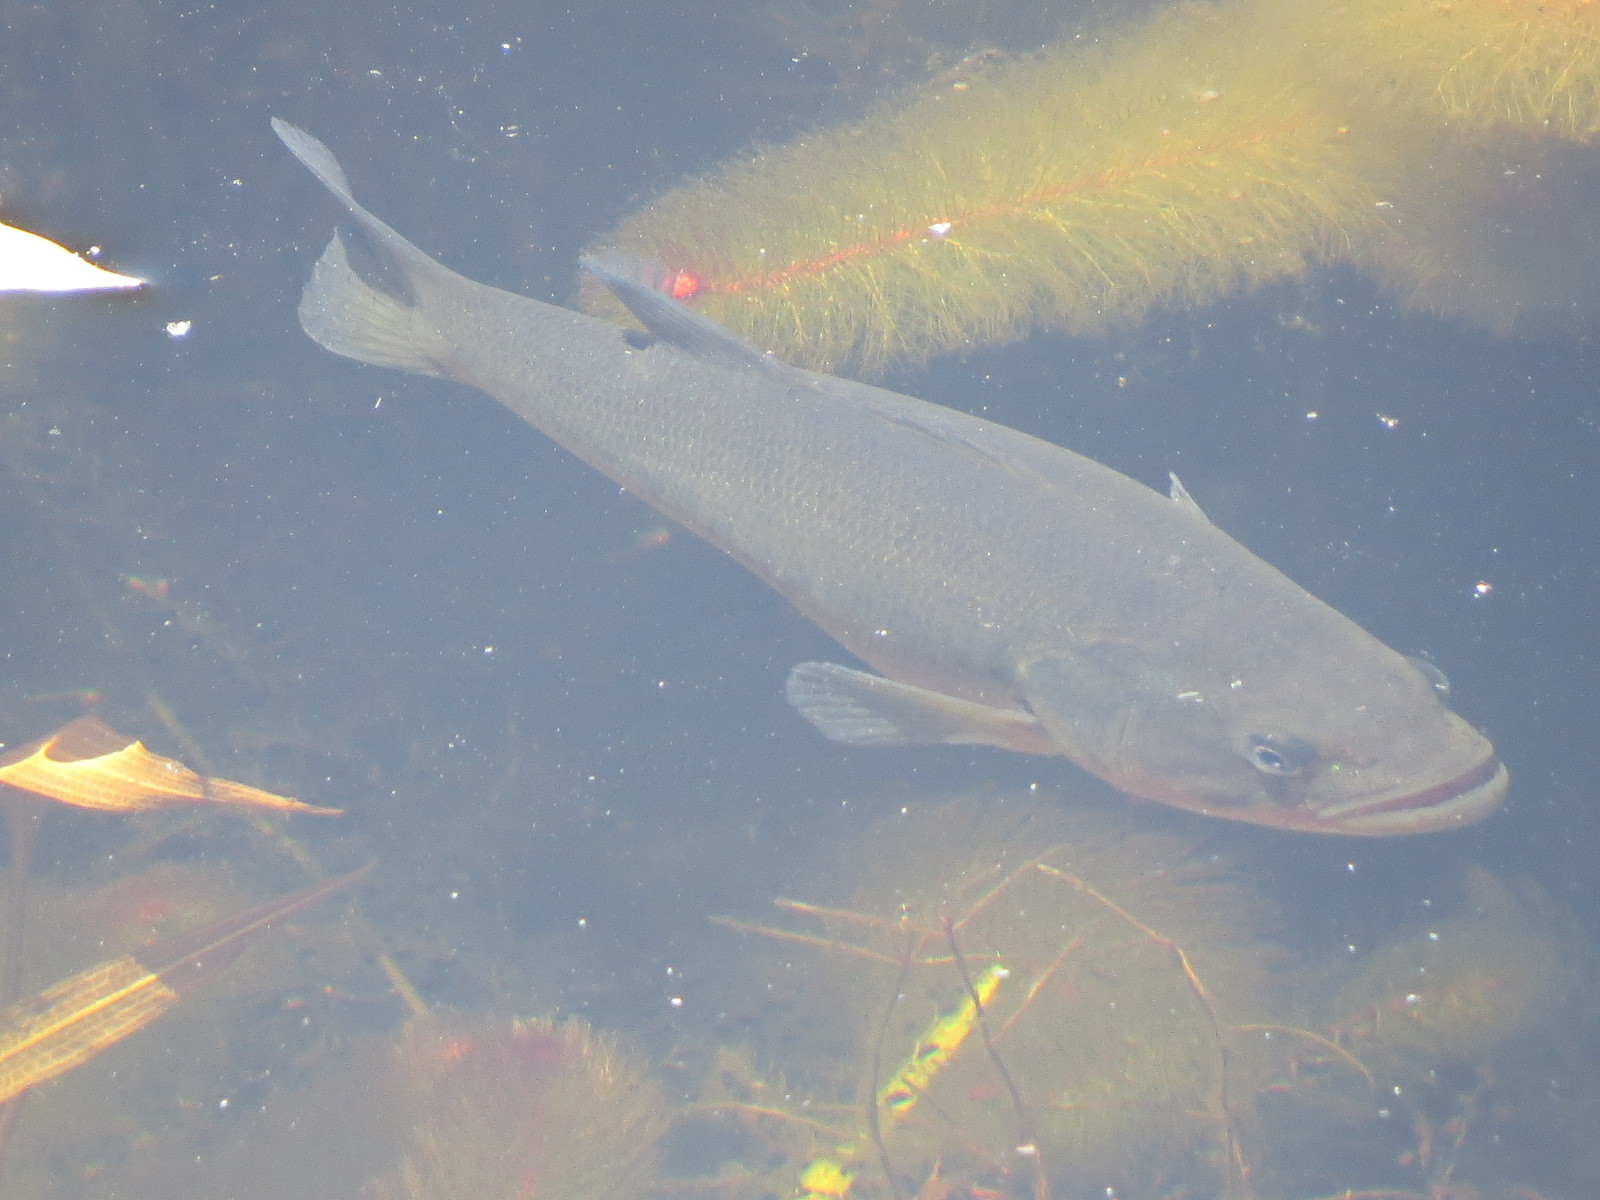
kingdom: Animalia
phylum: Chordata
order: Perciformes
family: Centrarchidae
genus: Micropterus
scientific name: Micropterus
